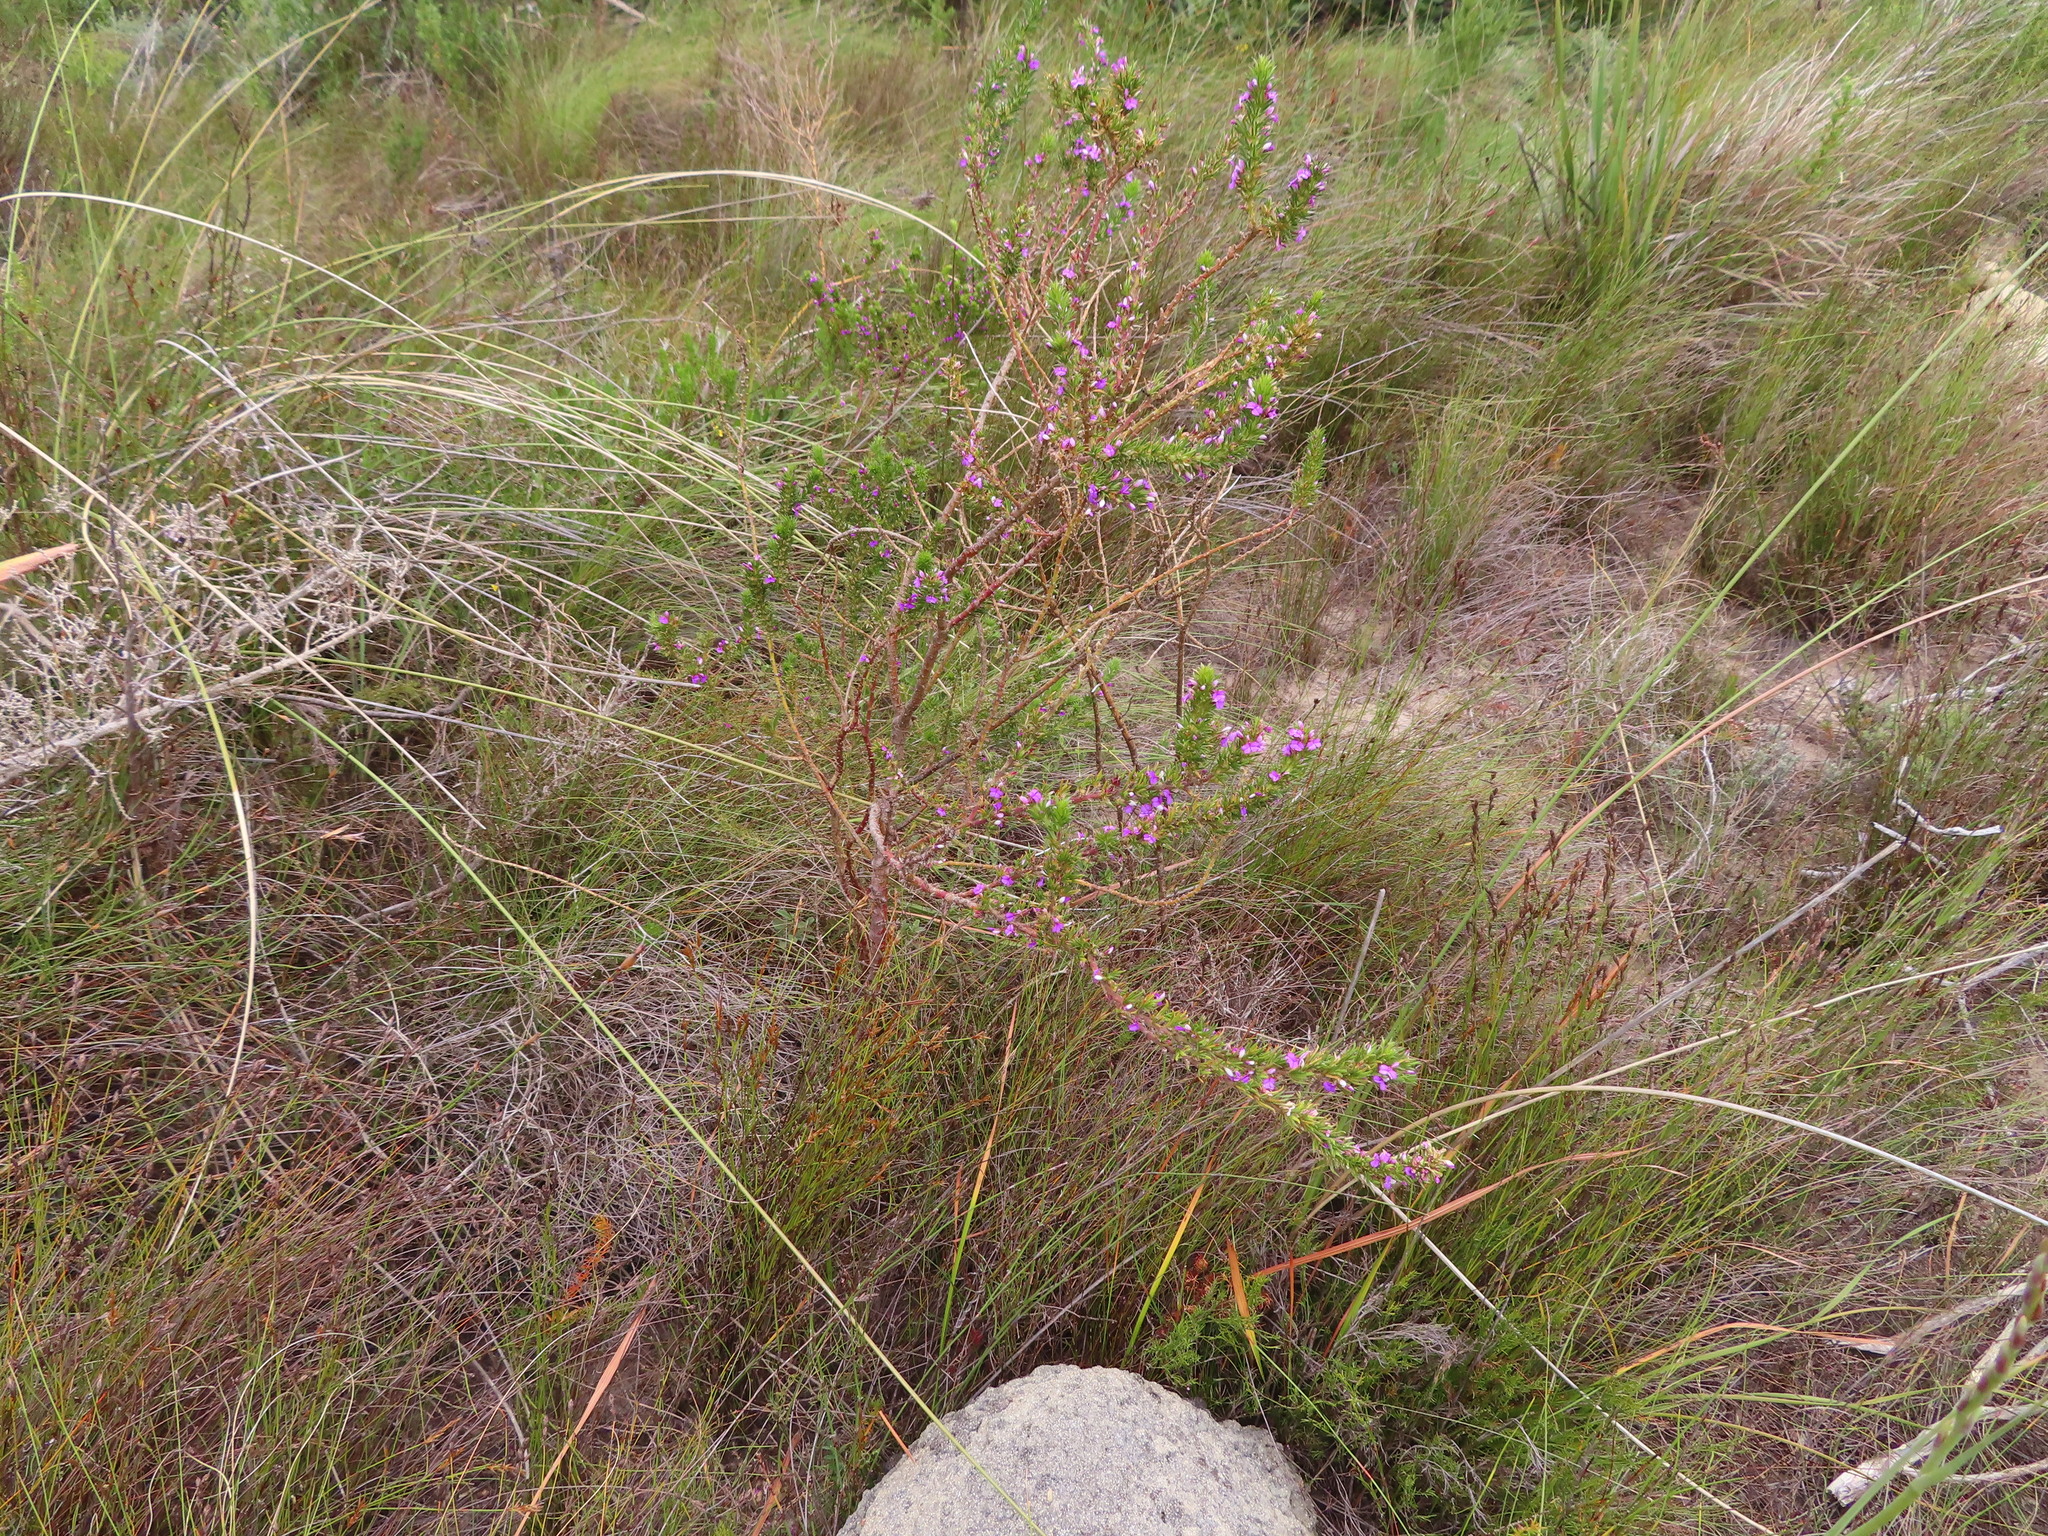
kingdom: Plantae
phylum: Tracheophyta
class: Magnoliopsida
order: Fabales
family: Polygalaceae
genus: Muraltia
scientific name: Muraltia heisteria
